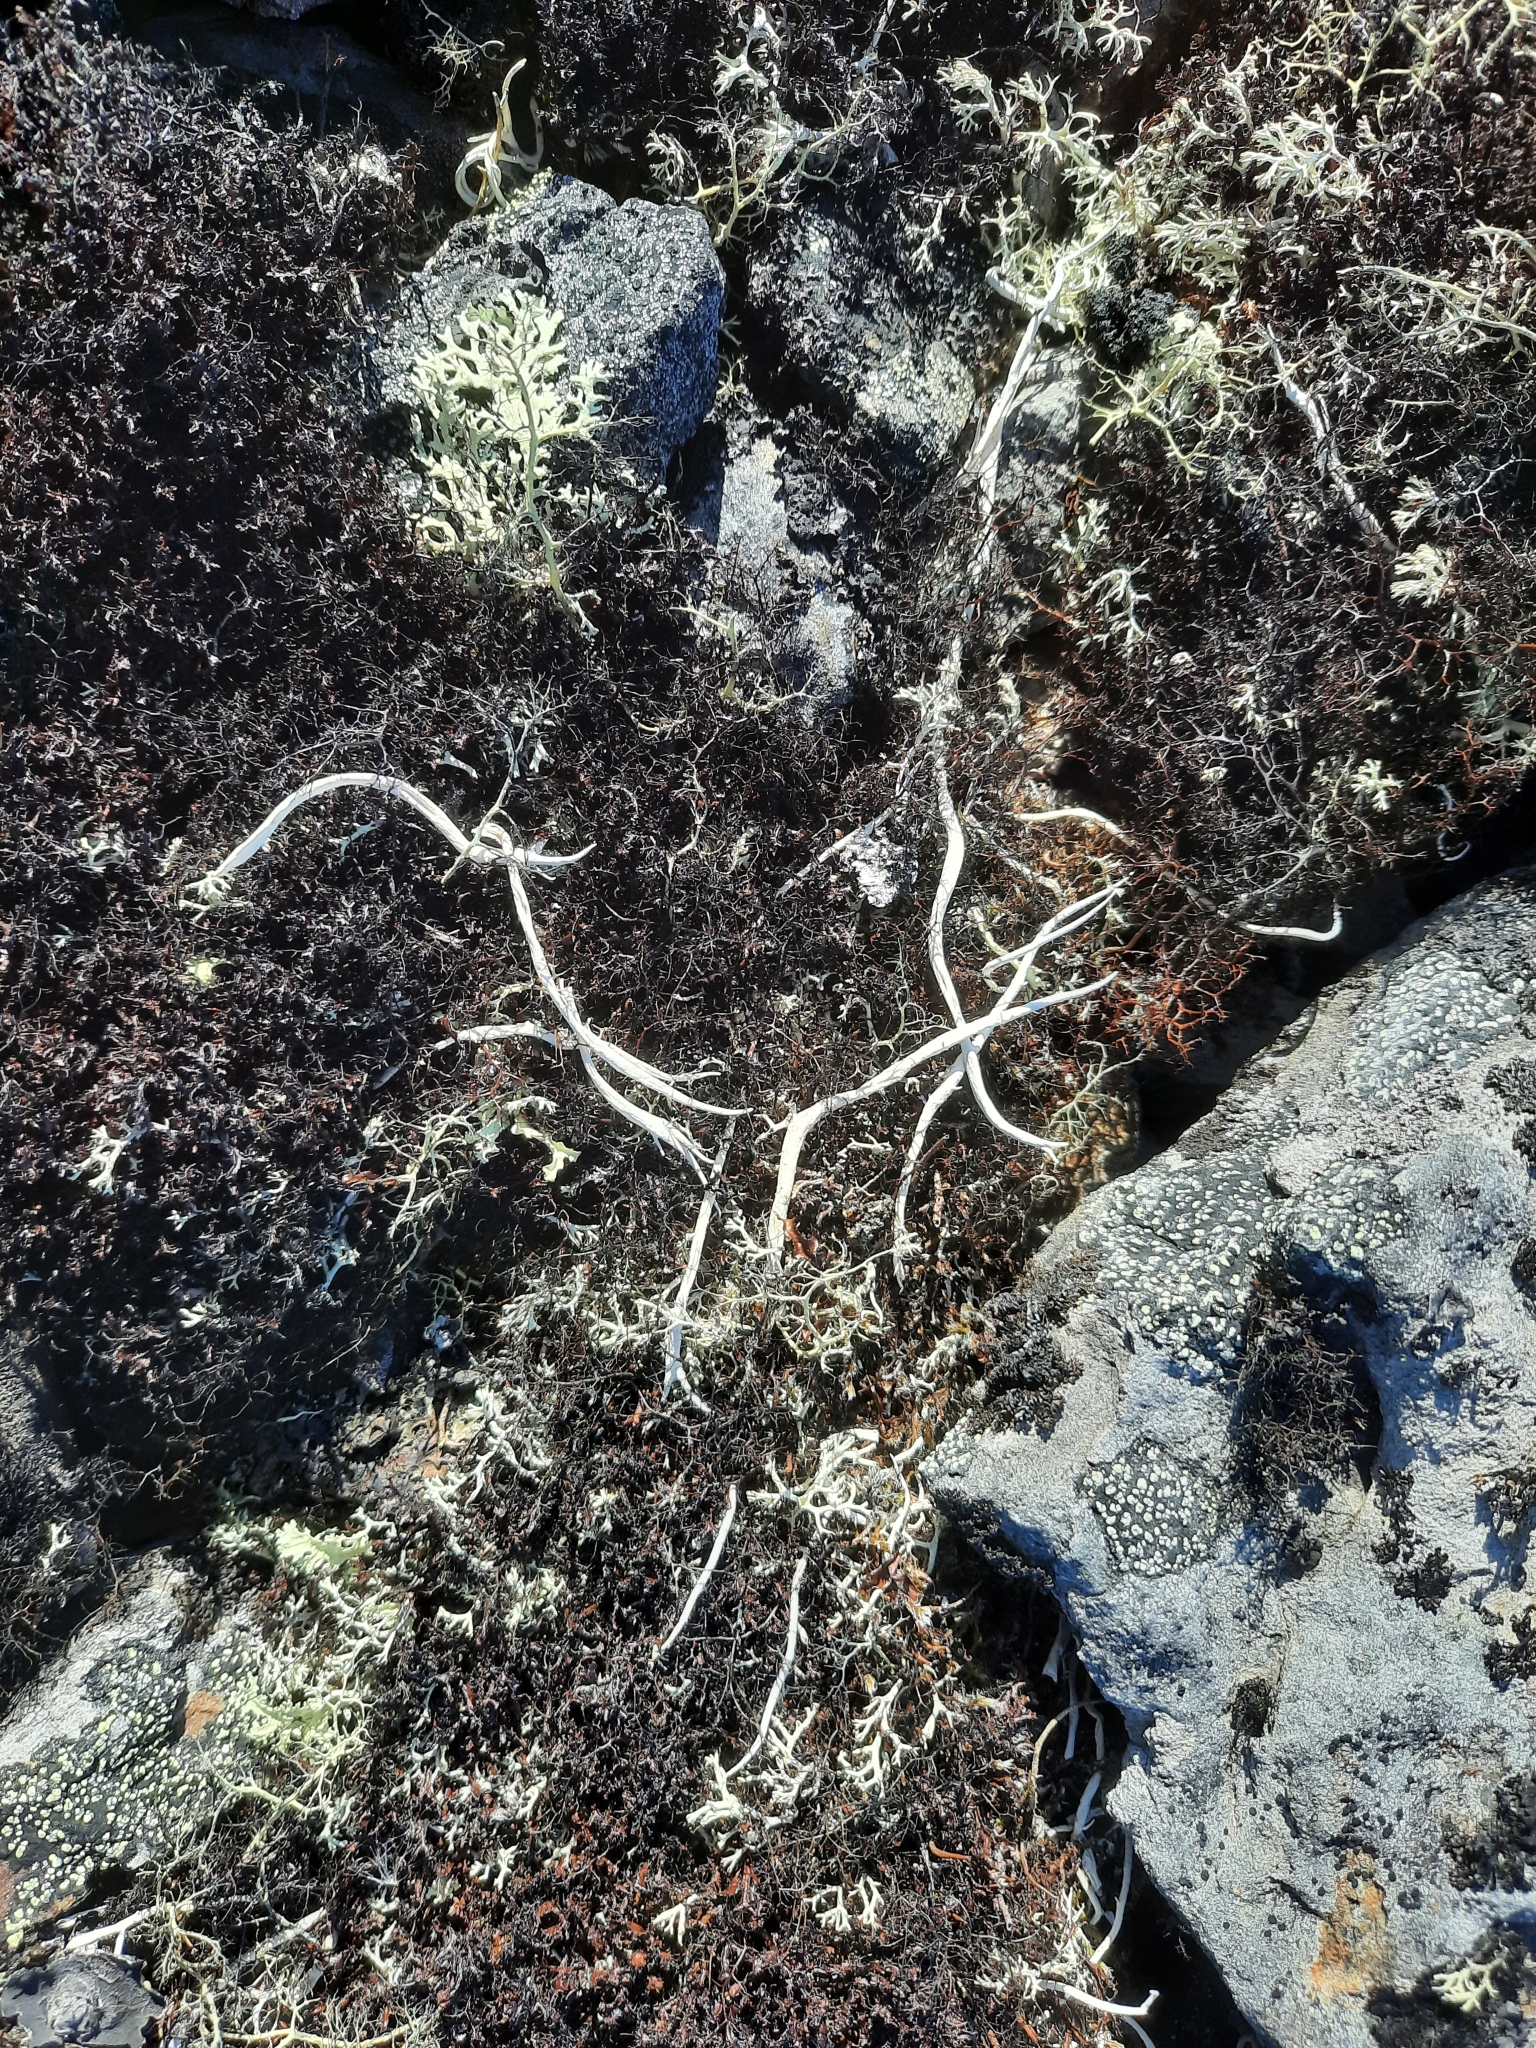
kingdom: Fungi
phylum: Ascomycota
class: Lecanoromycetes
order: Pertusariales
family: Icmadophilaceae
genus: Thamnolia
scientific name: Thamnolia vermicularis
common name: Whiteworm lichen
